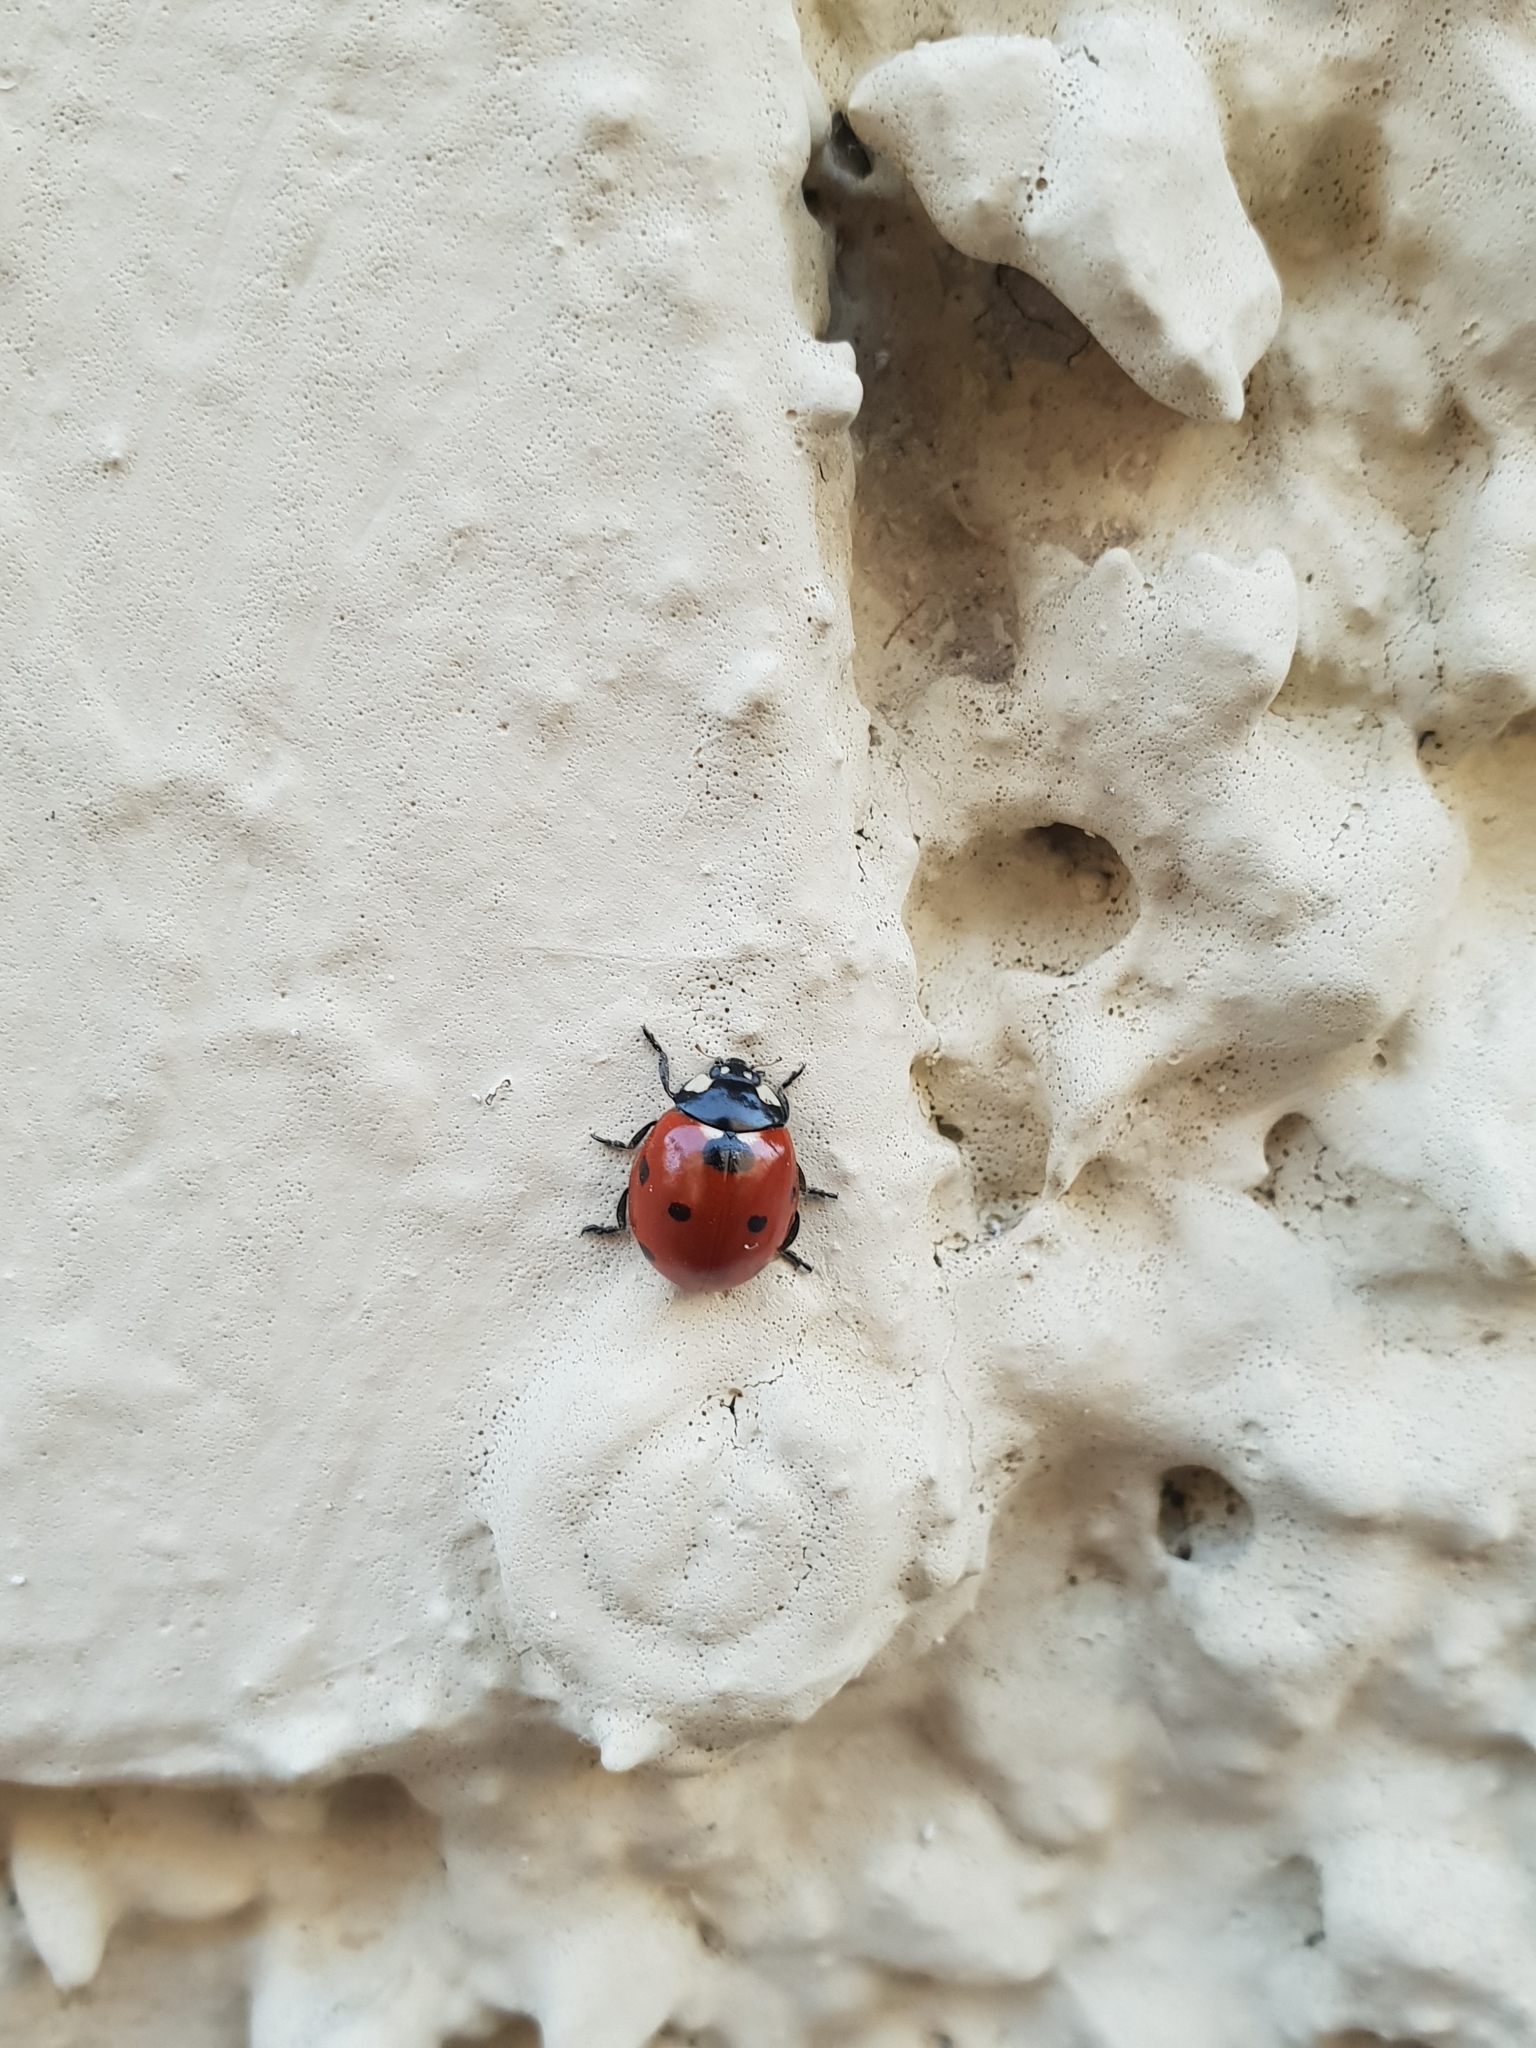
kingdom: Animalia
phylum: Arthropoda
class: Insecta
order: Coleoptera
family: Coccinellidae
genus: Coccinella
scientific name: Coccinella septempunctata
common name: Sevenspotted lady beetle
